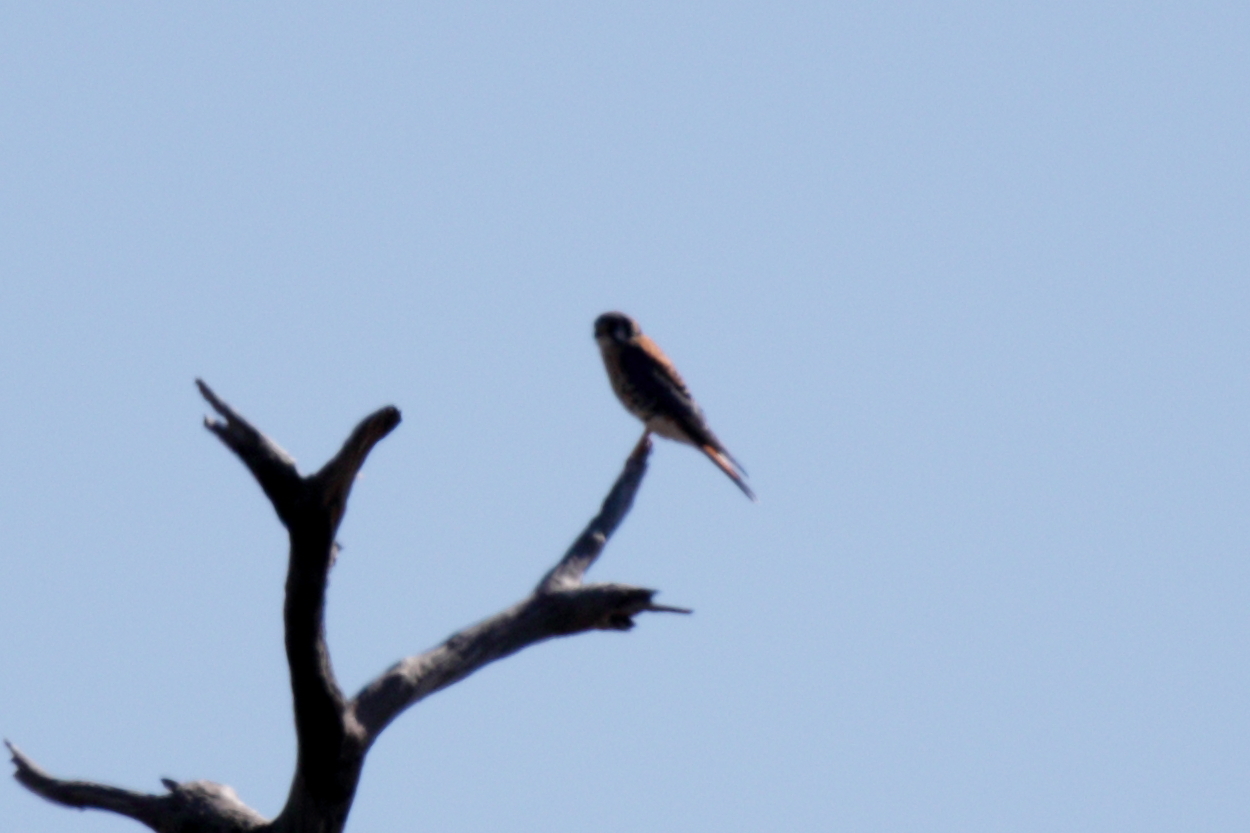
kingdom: Animalia
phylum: Chordata
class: Aves
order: Falconiformes
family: Falconidae
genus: Falco
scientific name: Falco sparverius
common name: American kestrel
